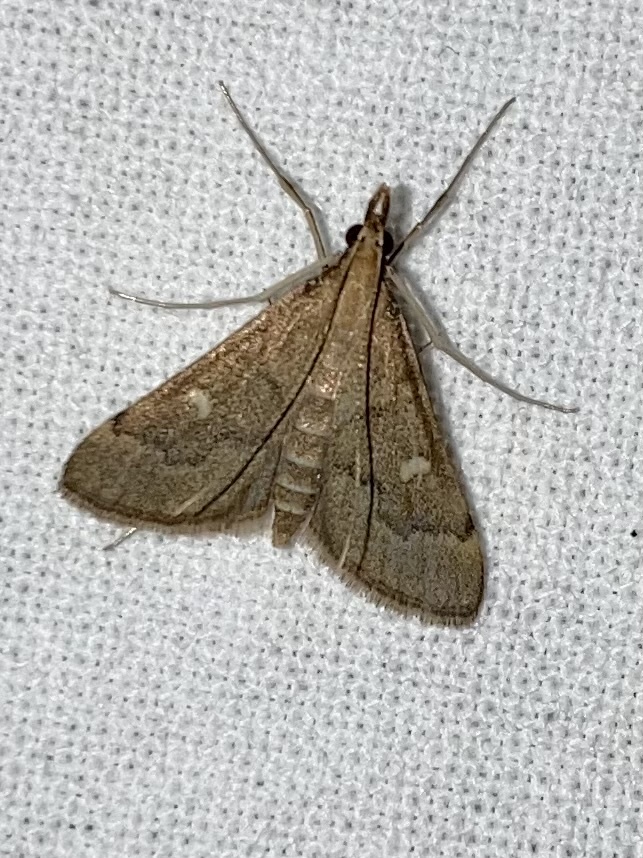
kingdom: Animalia
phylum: Arthropoda
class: Insecta
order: Lepidoptera
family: Crambidae
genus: Stenia
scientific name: Stenia Dolicharthria punctalis
